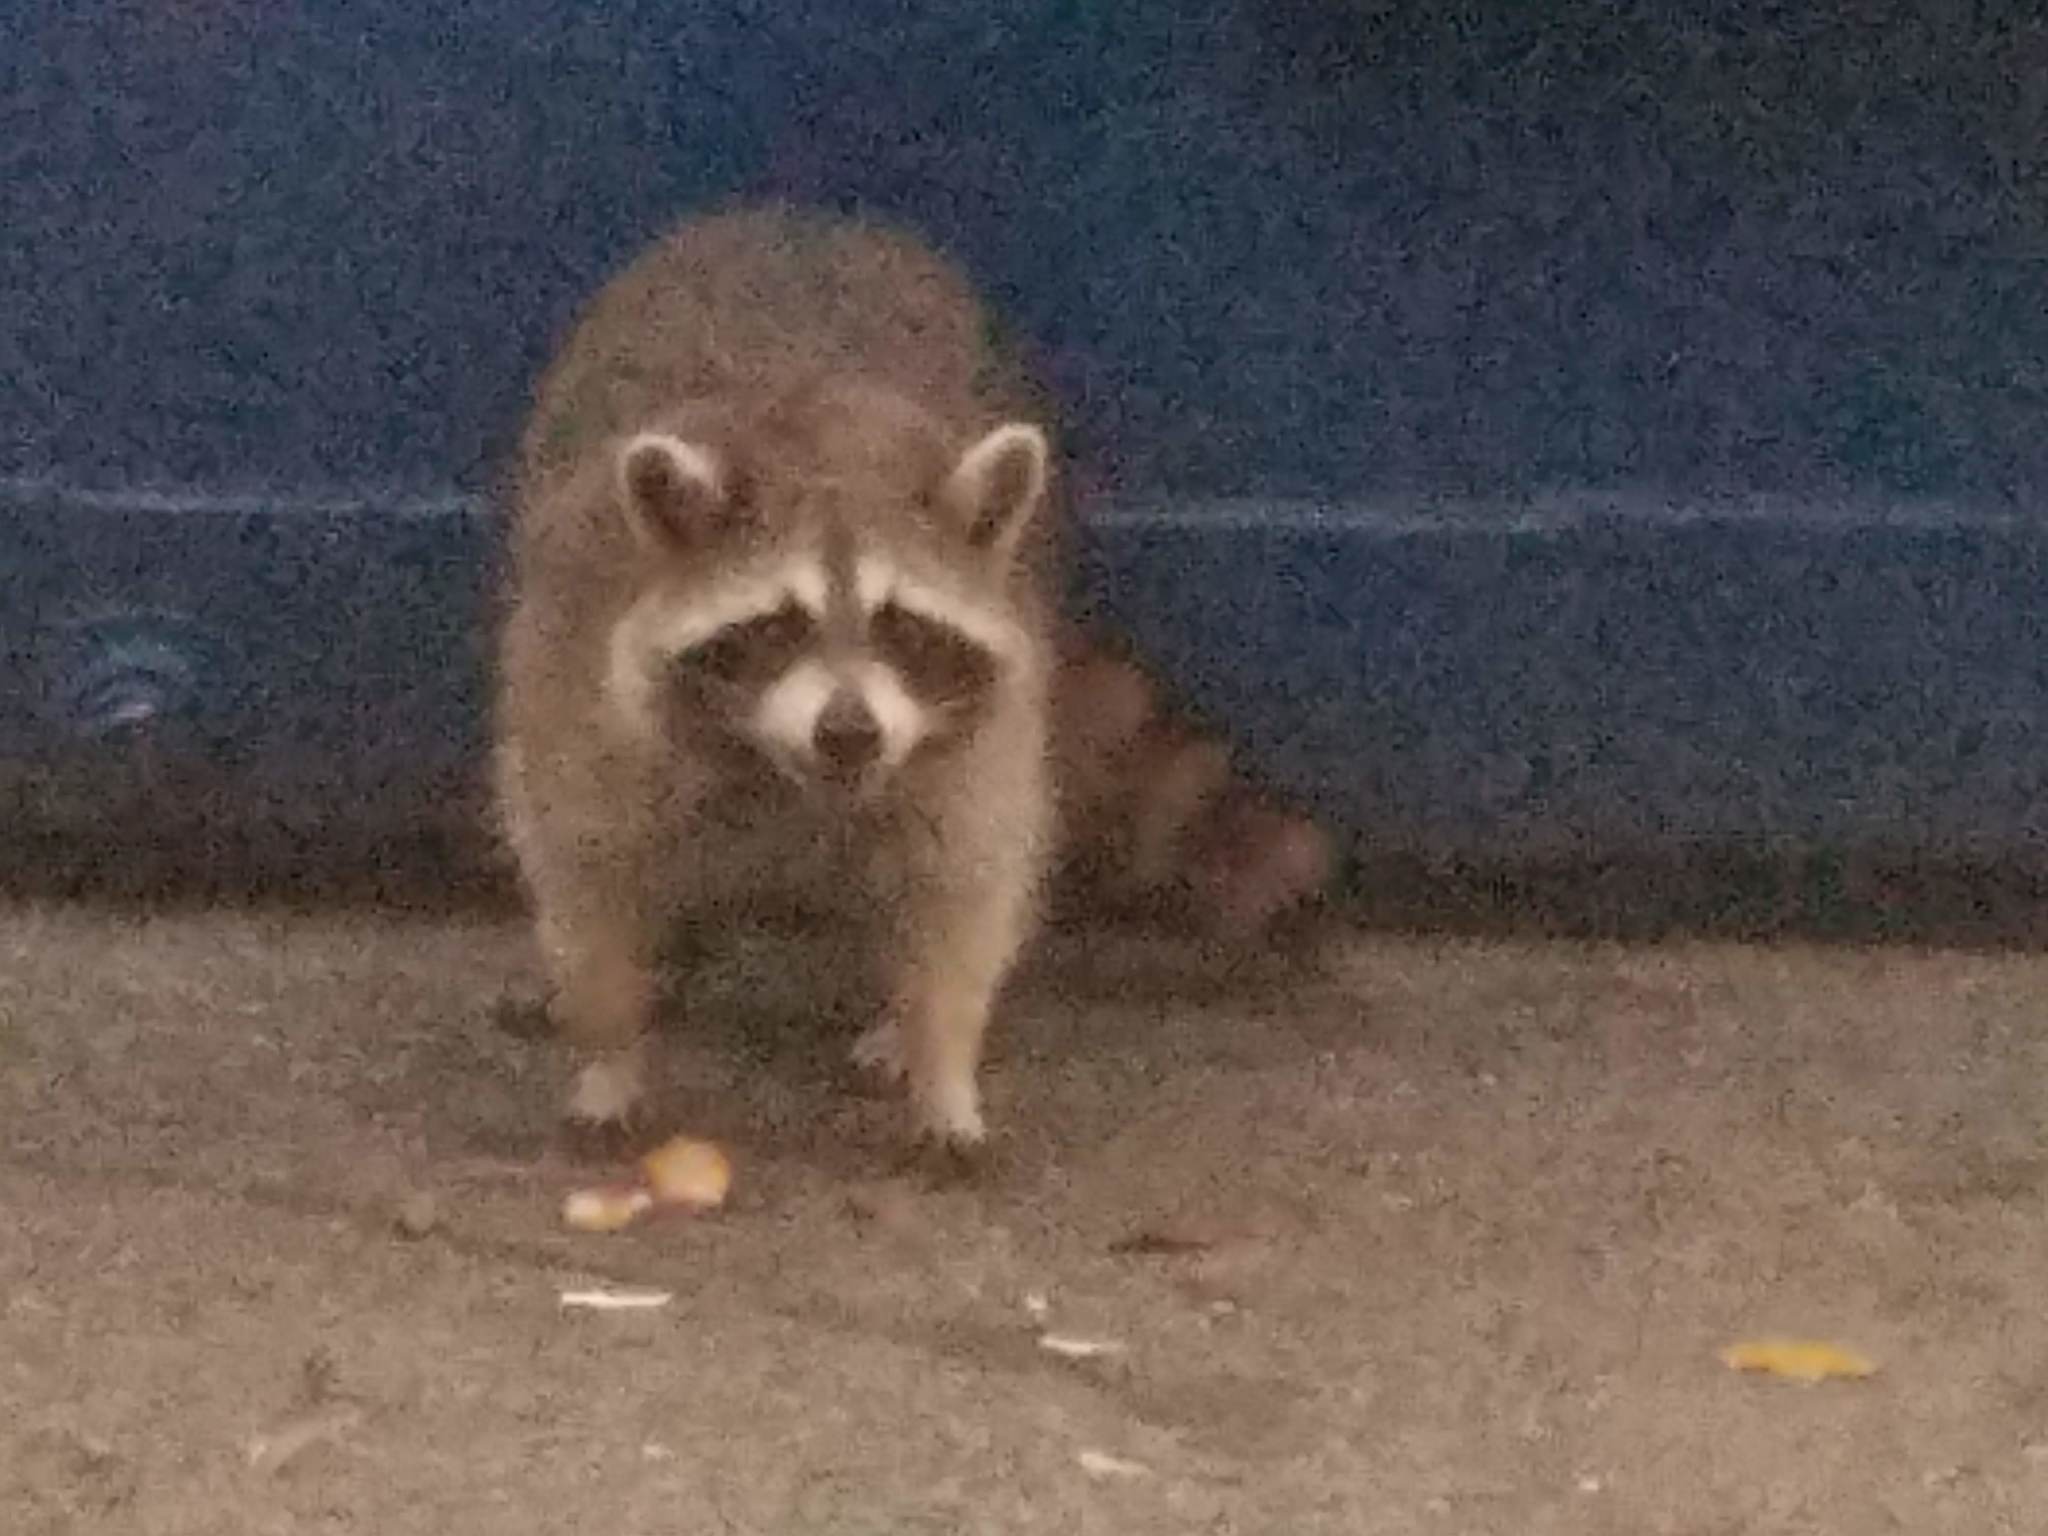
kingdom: Animalia
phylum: Chordata
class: Mammalia
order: Carnivora
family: Procyonidae
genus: Procyon
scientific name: Procyon lotor
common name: Raccoon
